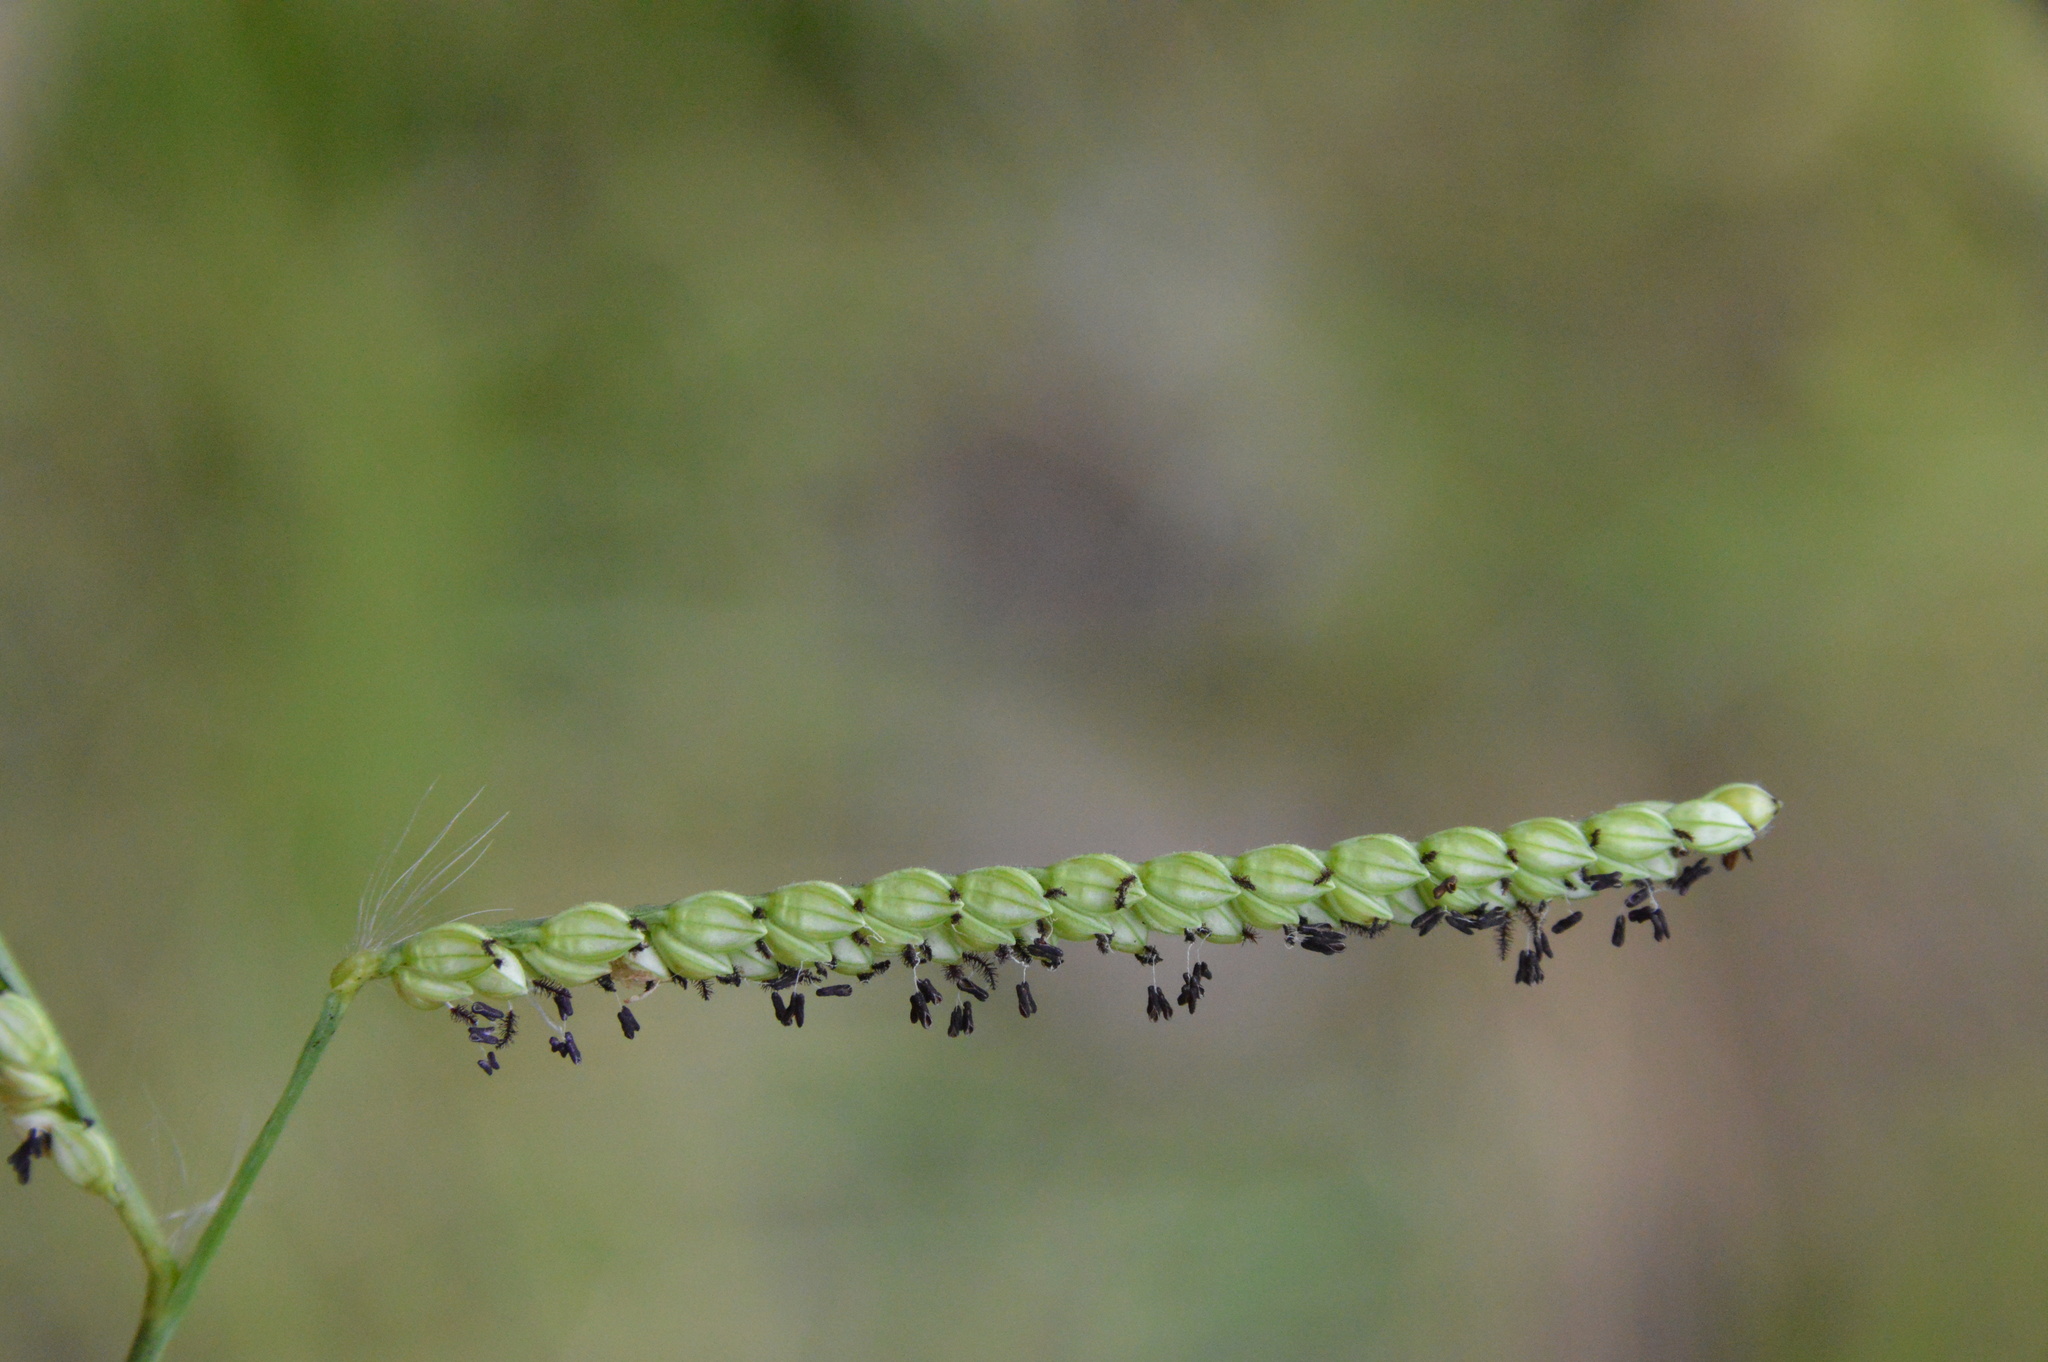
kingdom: Plantae
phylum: Tracheophyta
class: Liliopsida
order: Poales
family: Poaceae
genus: Paspalum
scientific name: Paspalum pubiflorum
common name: Hairy-seed paspalum
